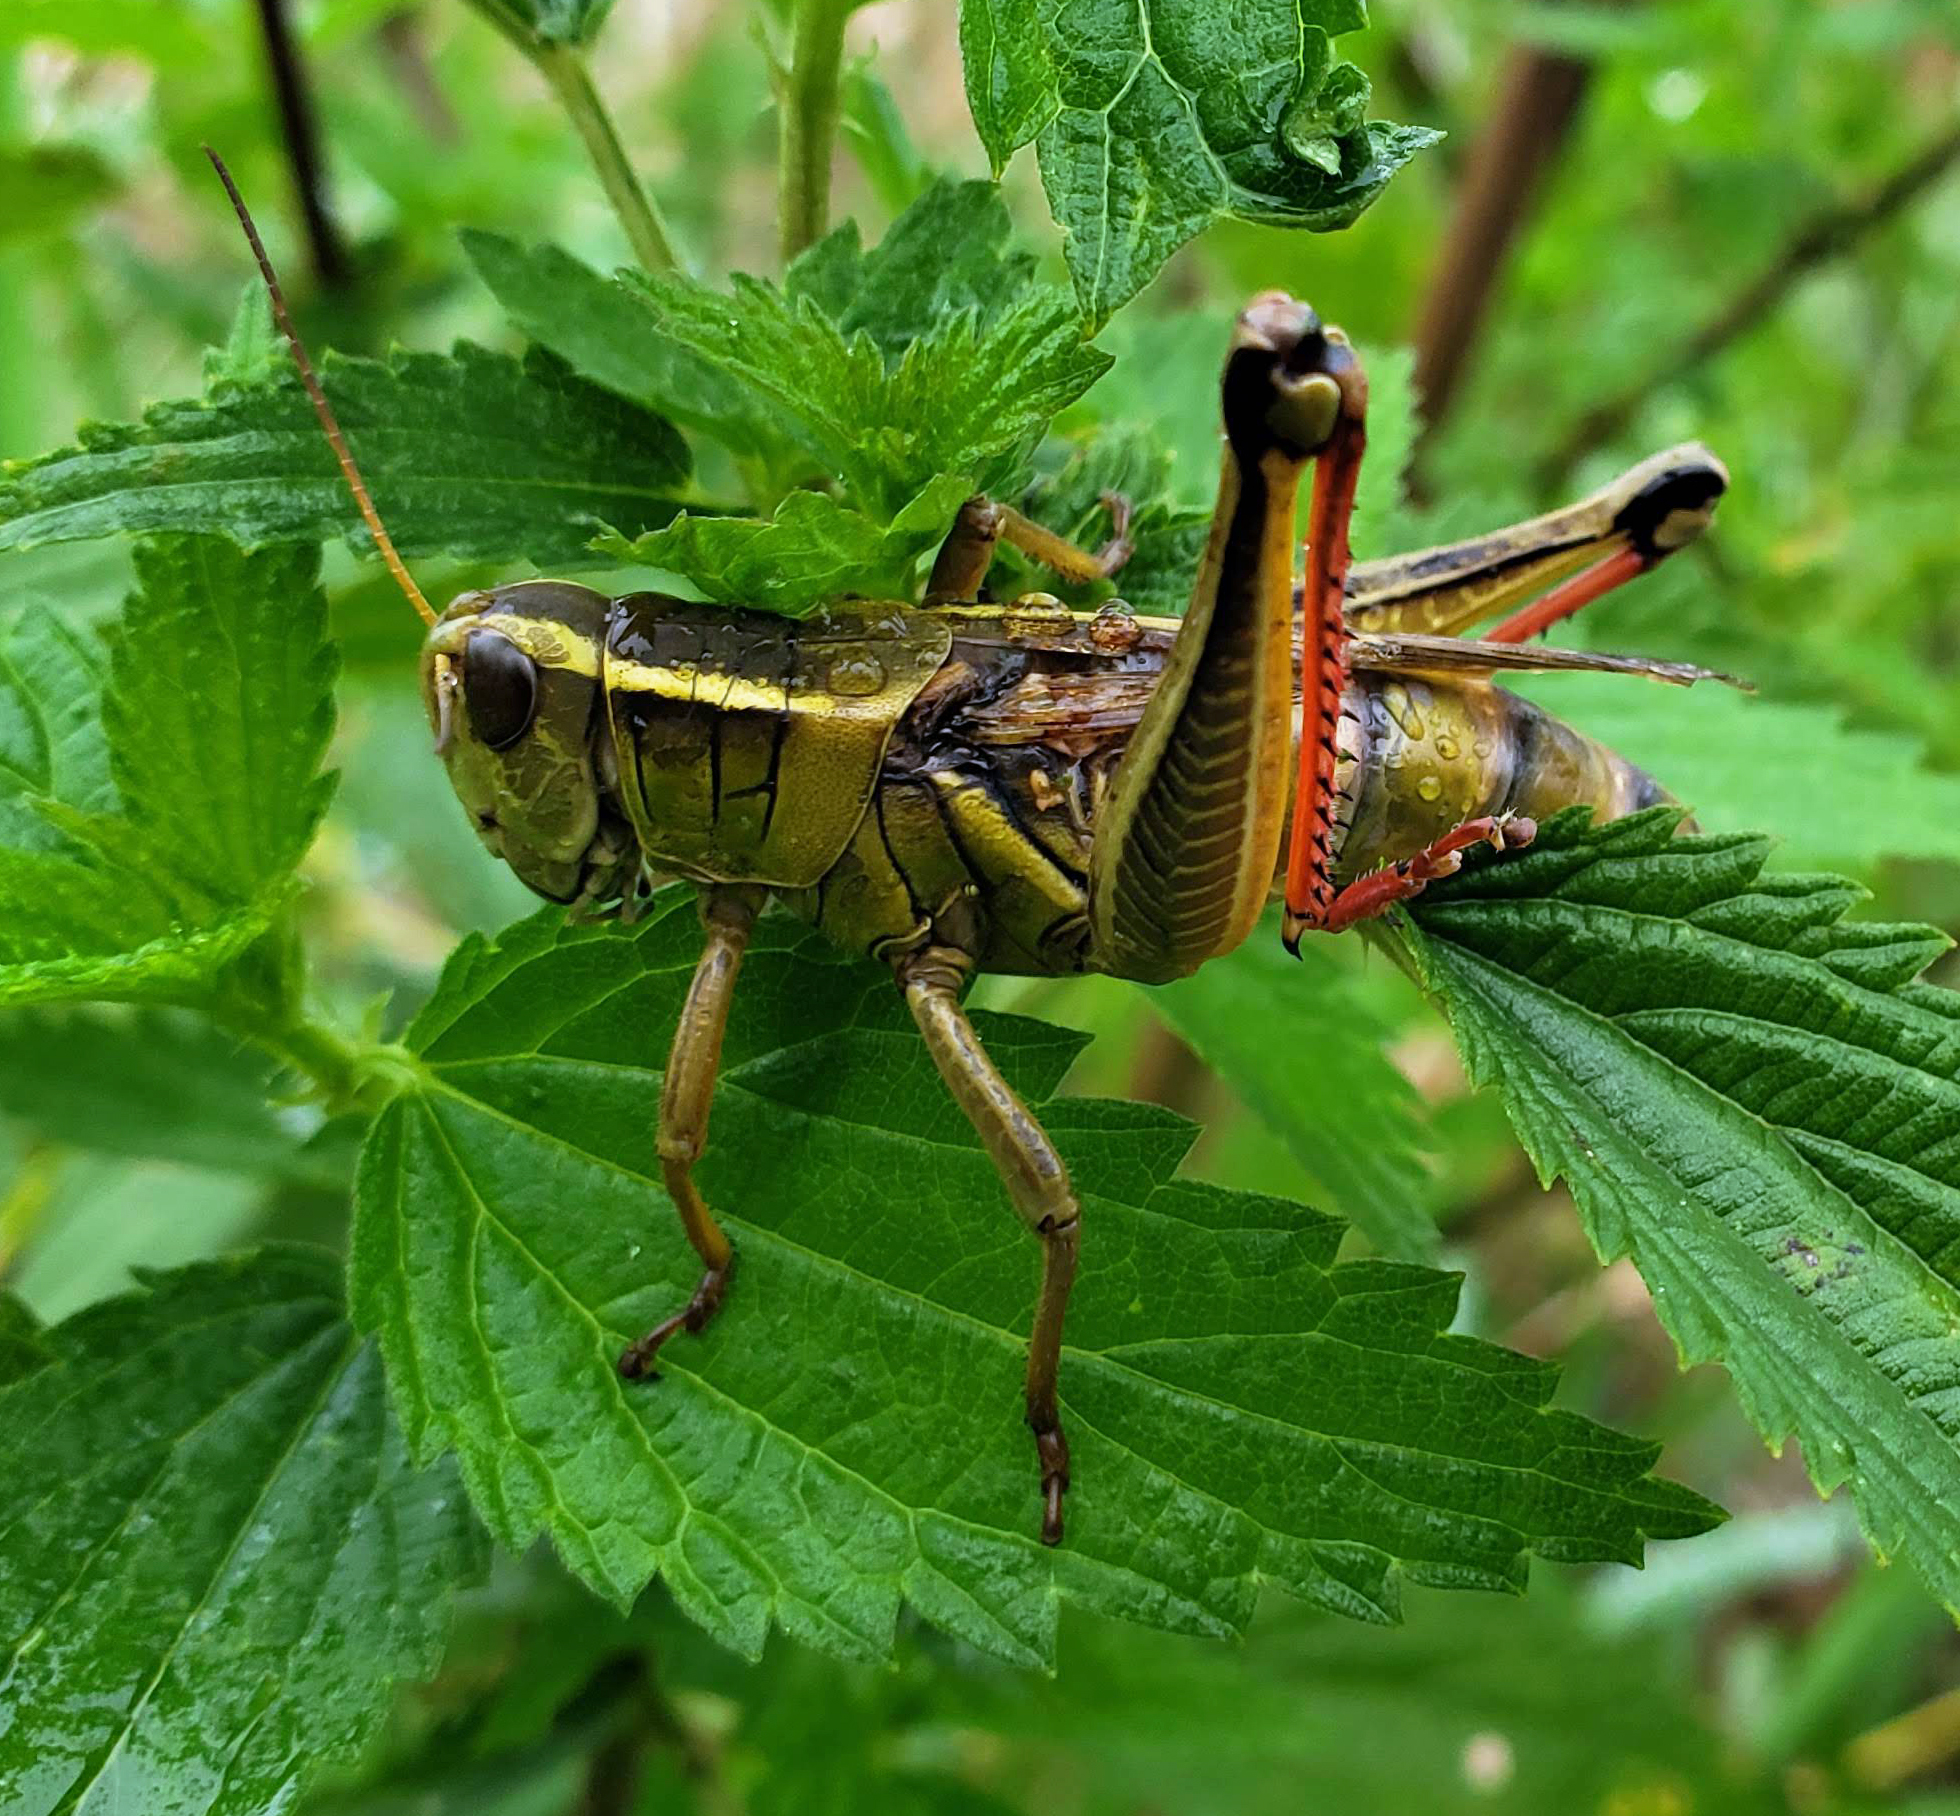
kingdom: Animalia
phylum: Arthropoda
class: Insecta
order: Orthoptera
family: Acrididae
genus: Melanoplus
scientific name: Melanoplus bivittatus
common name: Two-striped grasshopper
